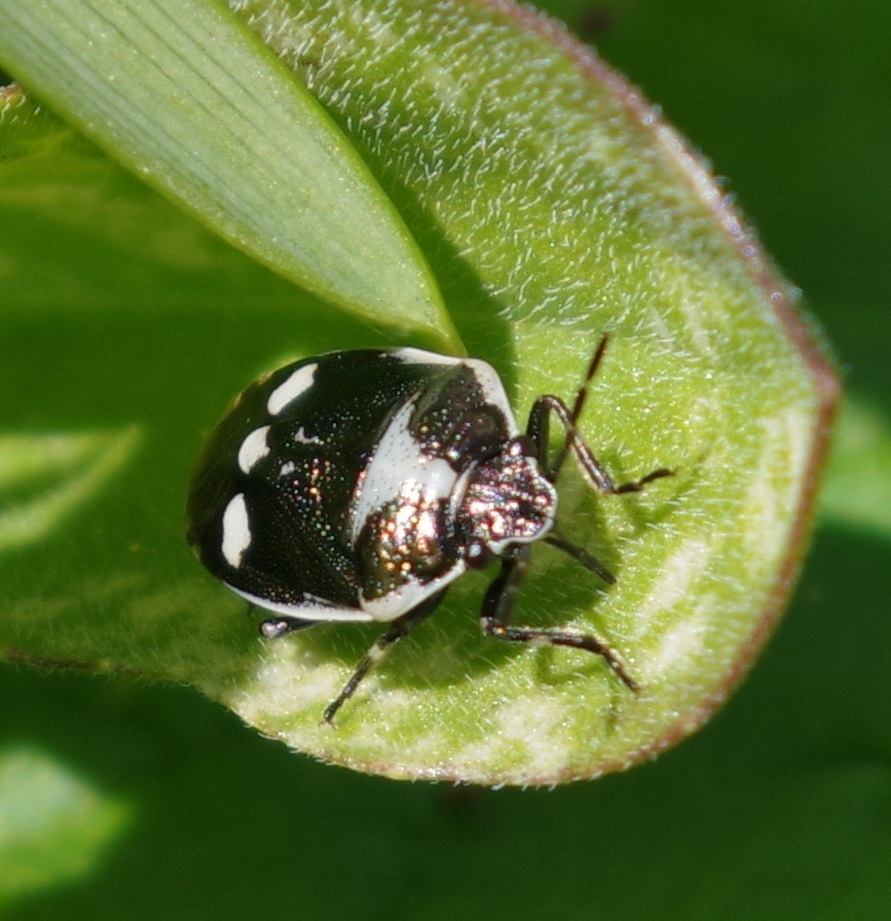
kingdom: Animalia
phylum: Arthropoda
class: Insecta
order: Hemiptera
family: Pentatomidae
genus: Eurydema
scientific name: Eurydema oleracea
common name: Cabbage bug
